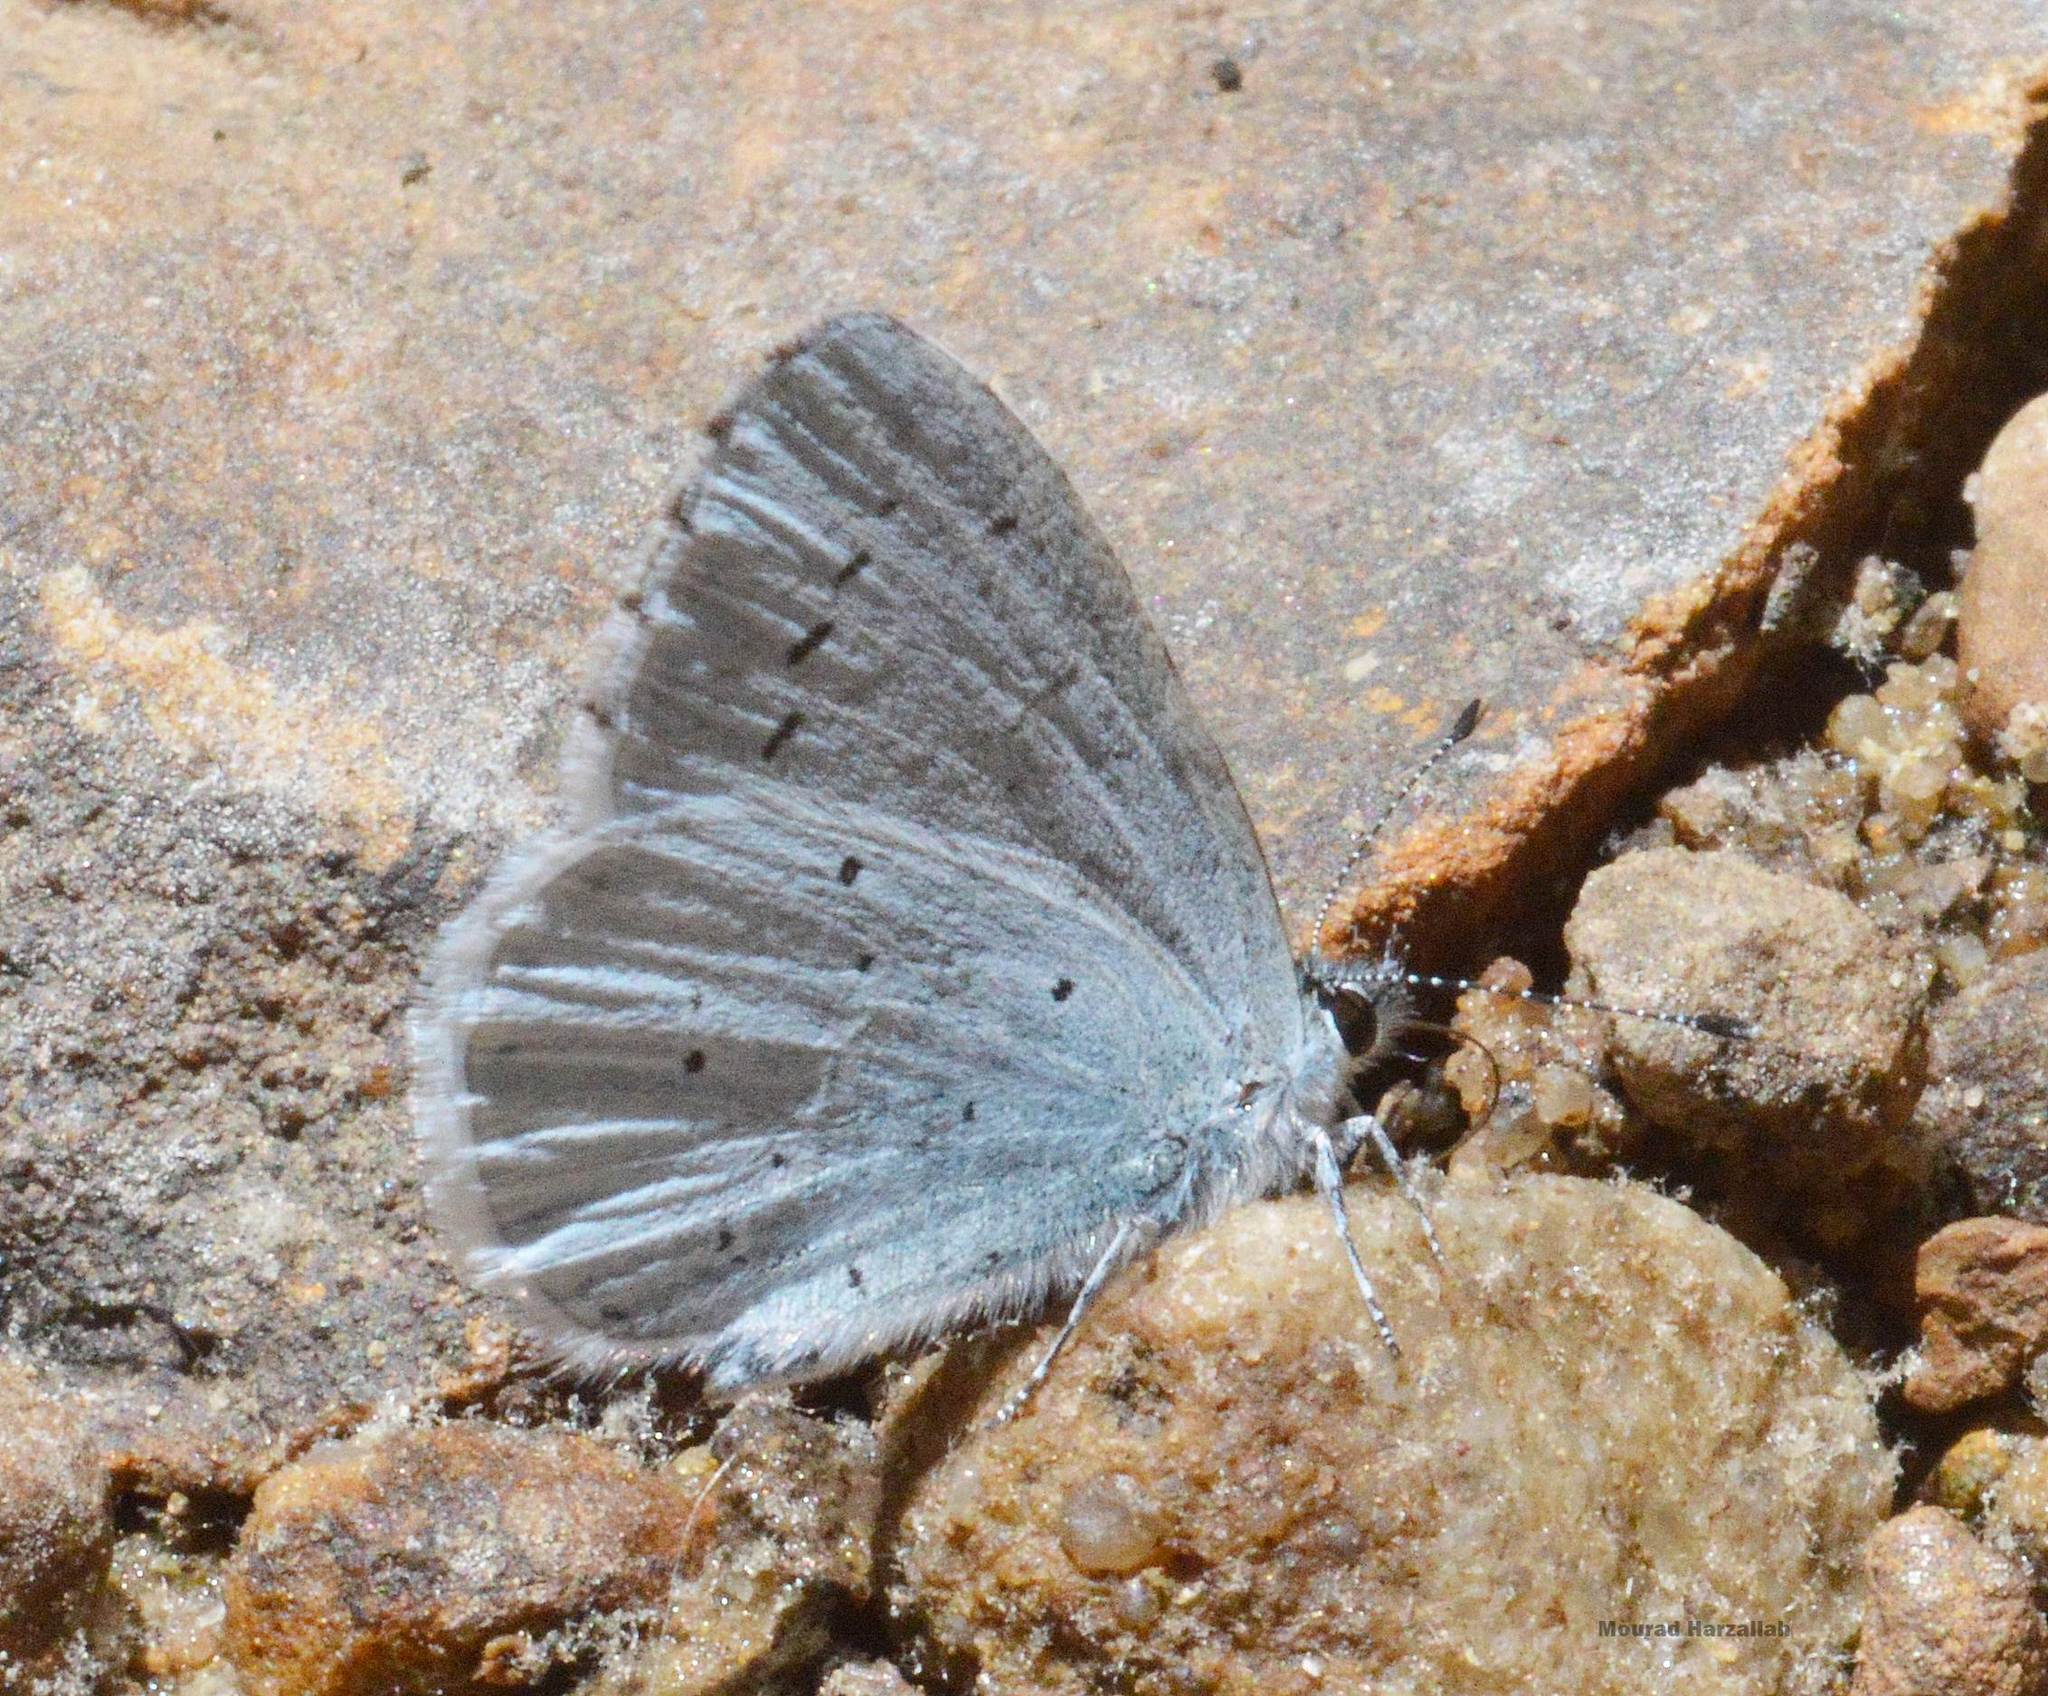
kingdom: Animalia
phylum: Arthropoda
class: Insecta
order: Lepidoptera
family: Lycaenidae
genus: Celastrina
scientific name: Celastrina argiolus
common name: Holly blue
